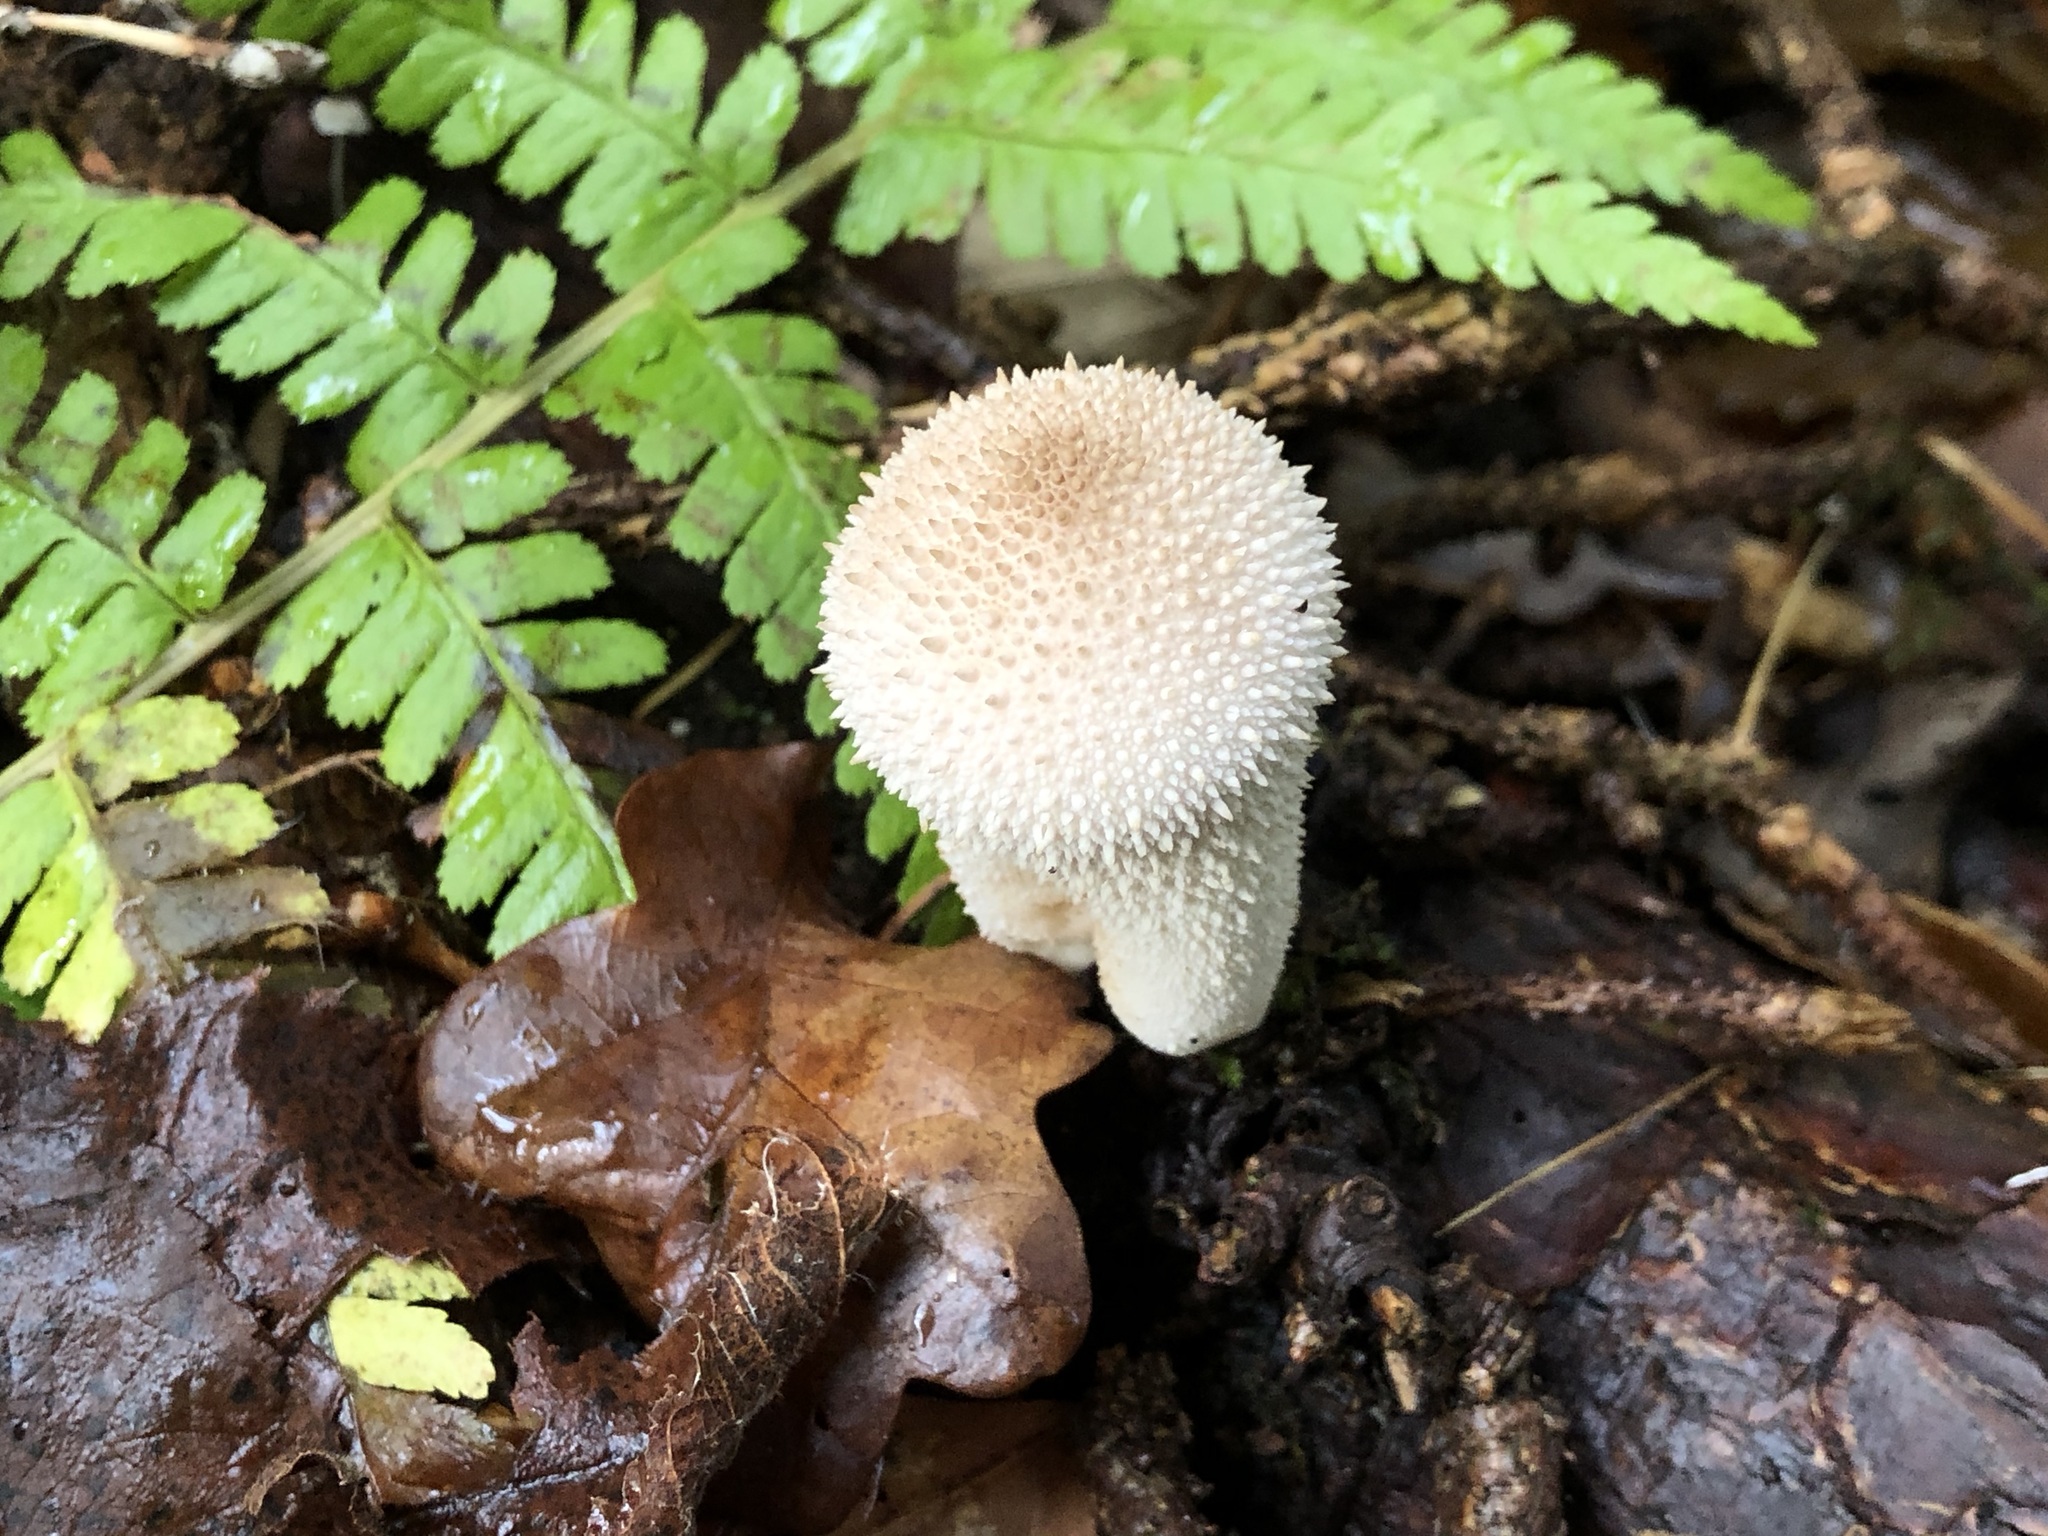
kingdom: Fungi
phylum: Basidiomycota
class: Agaricomycetes
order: Agaricales
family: Lycoperdaceae
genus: Lycoperdon
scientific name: Lycoperdon perlatum
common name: Common puffball
